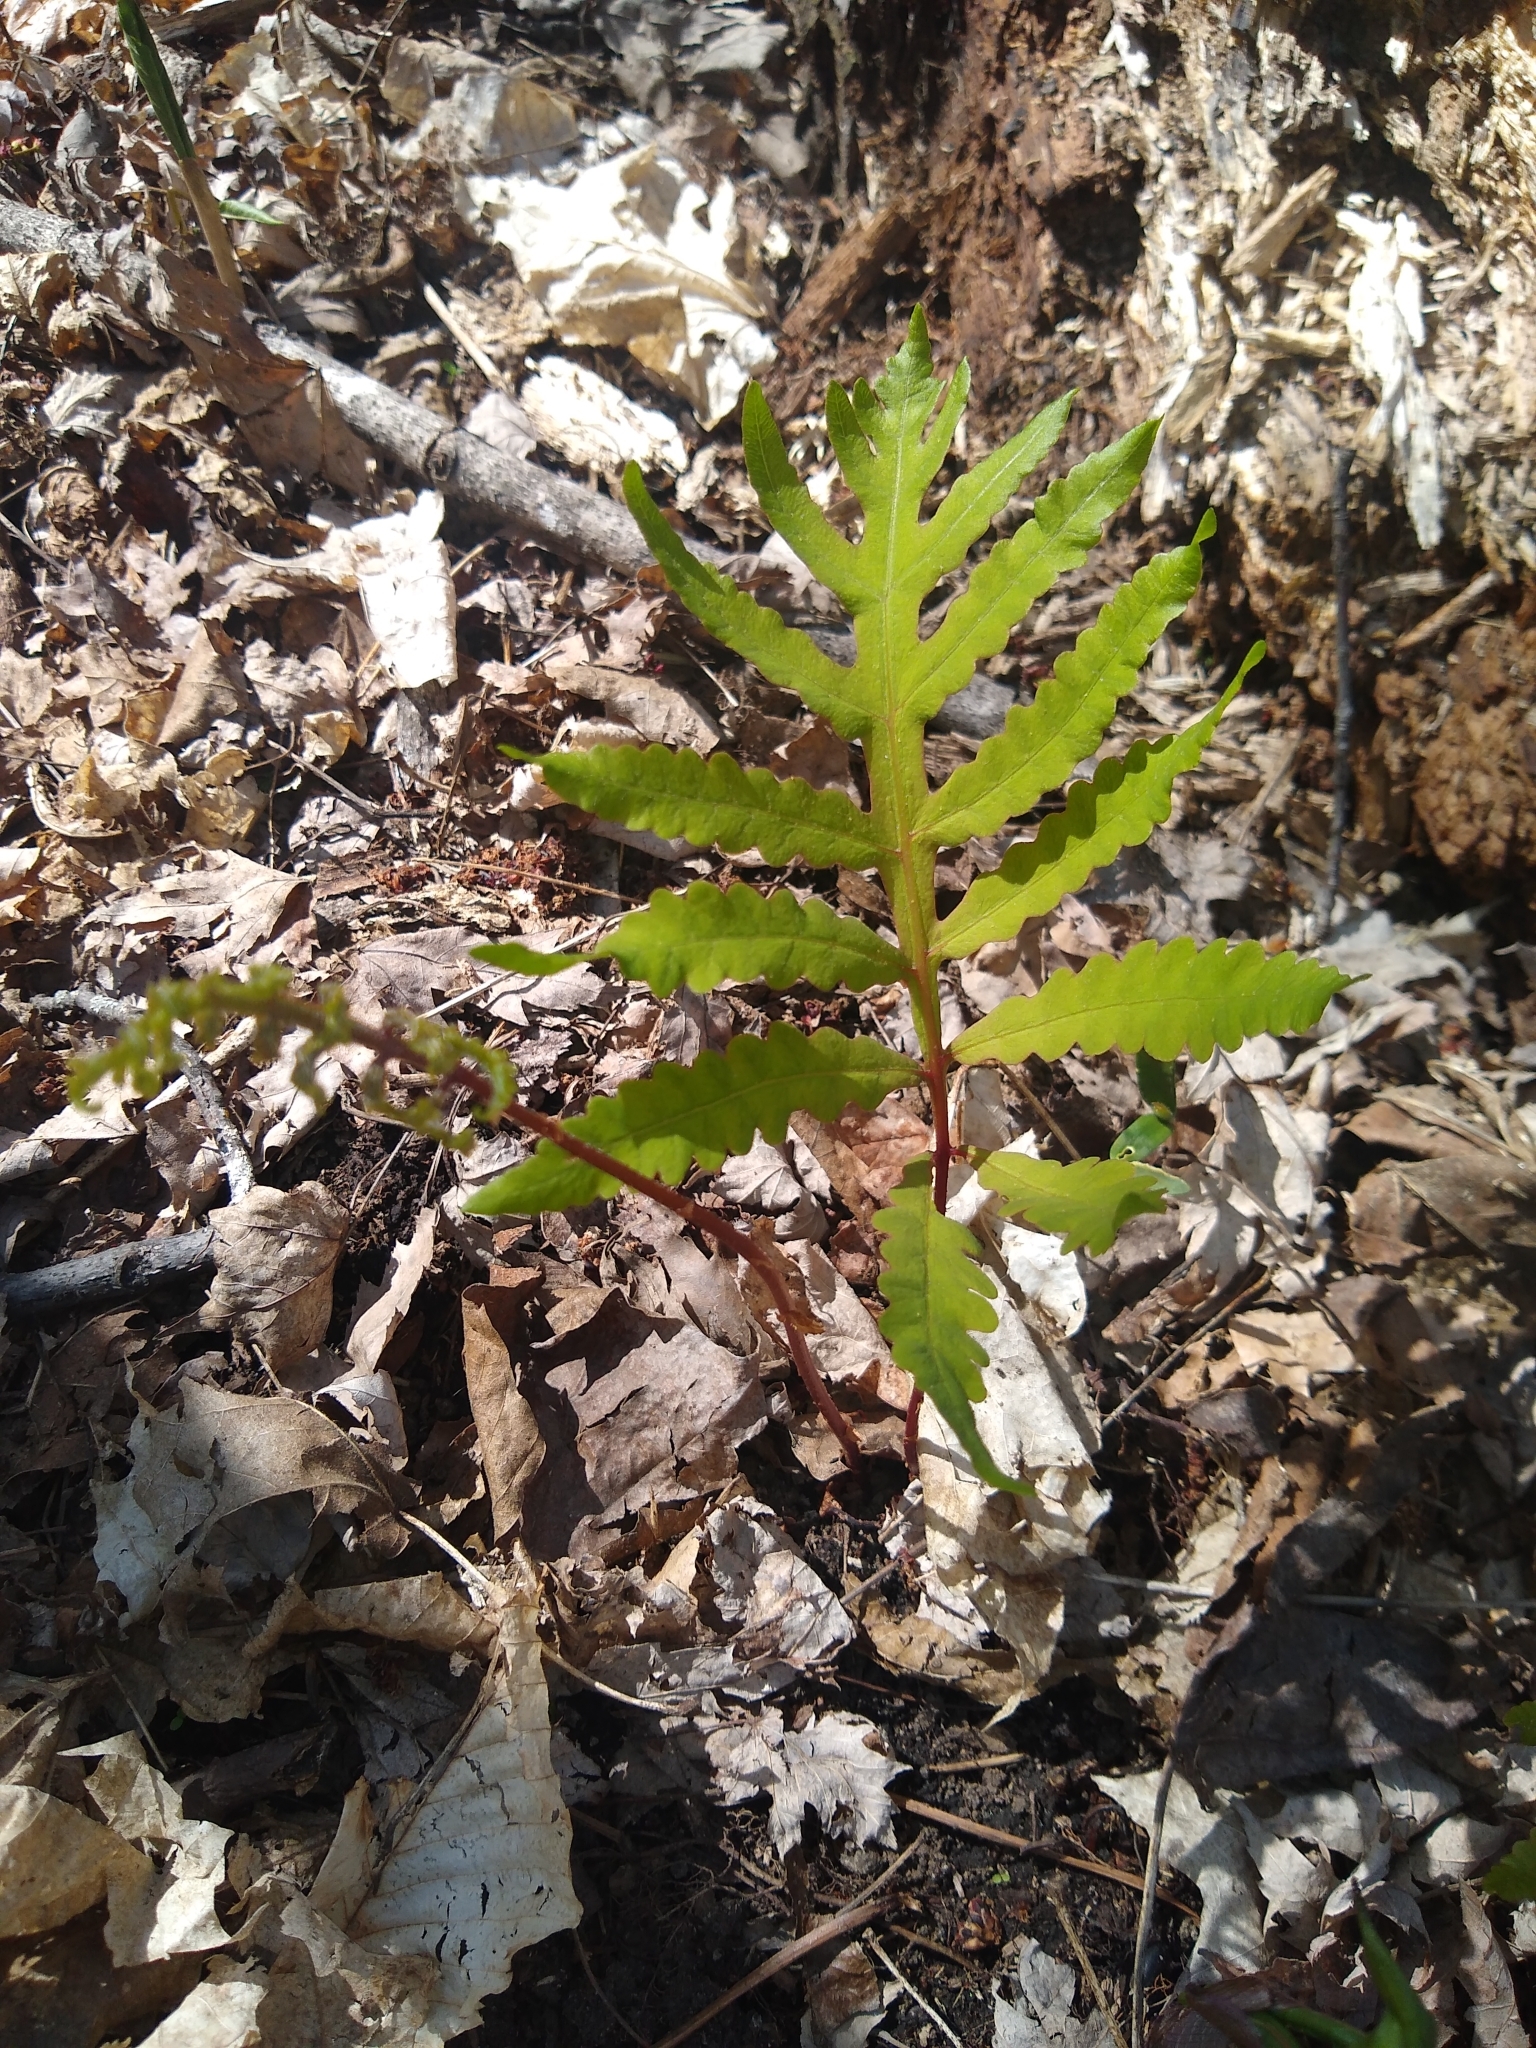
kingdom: Plantae
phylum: Tracheophyta
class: Polypodiopsida
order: Polypodiales
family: Onocleaceae
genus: Onoclea
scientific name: Onoclea sensibilis
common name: Sensitive fern
